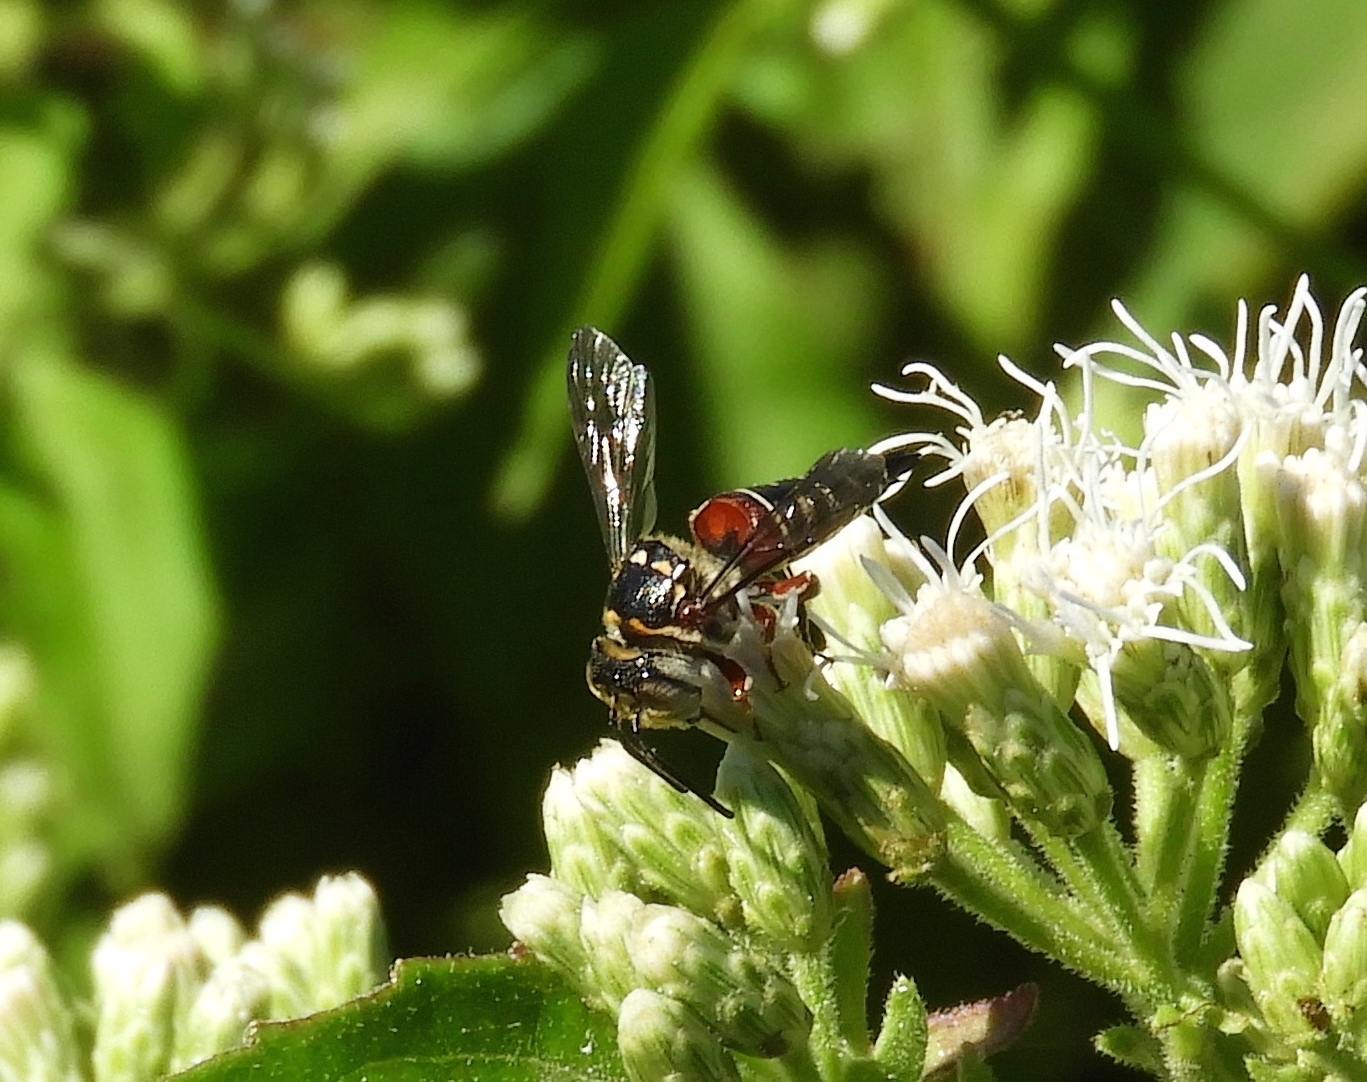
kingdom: Animalia
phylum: Arthropoda
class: Insecta
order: Hymenoptera
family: Megachilidae
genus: Coelioxys
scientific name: Coelioxys
